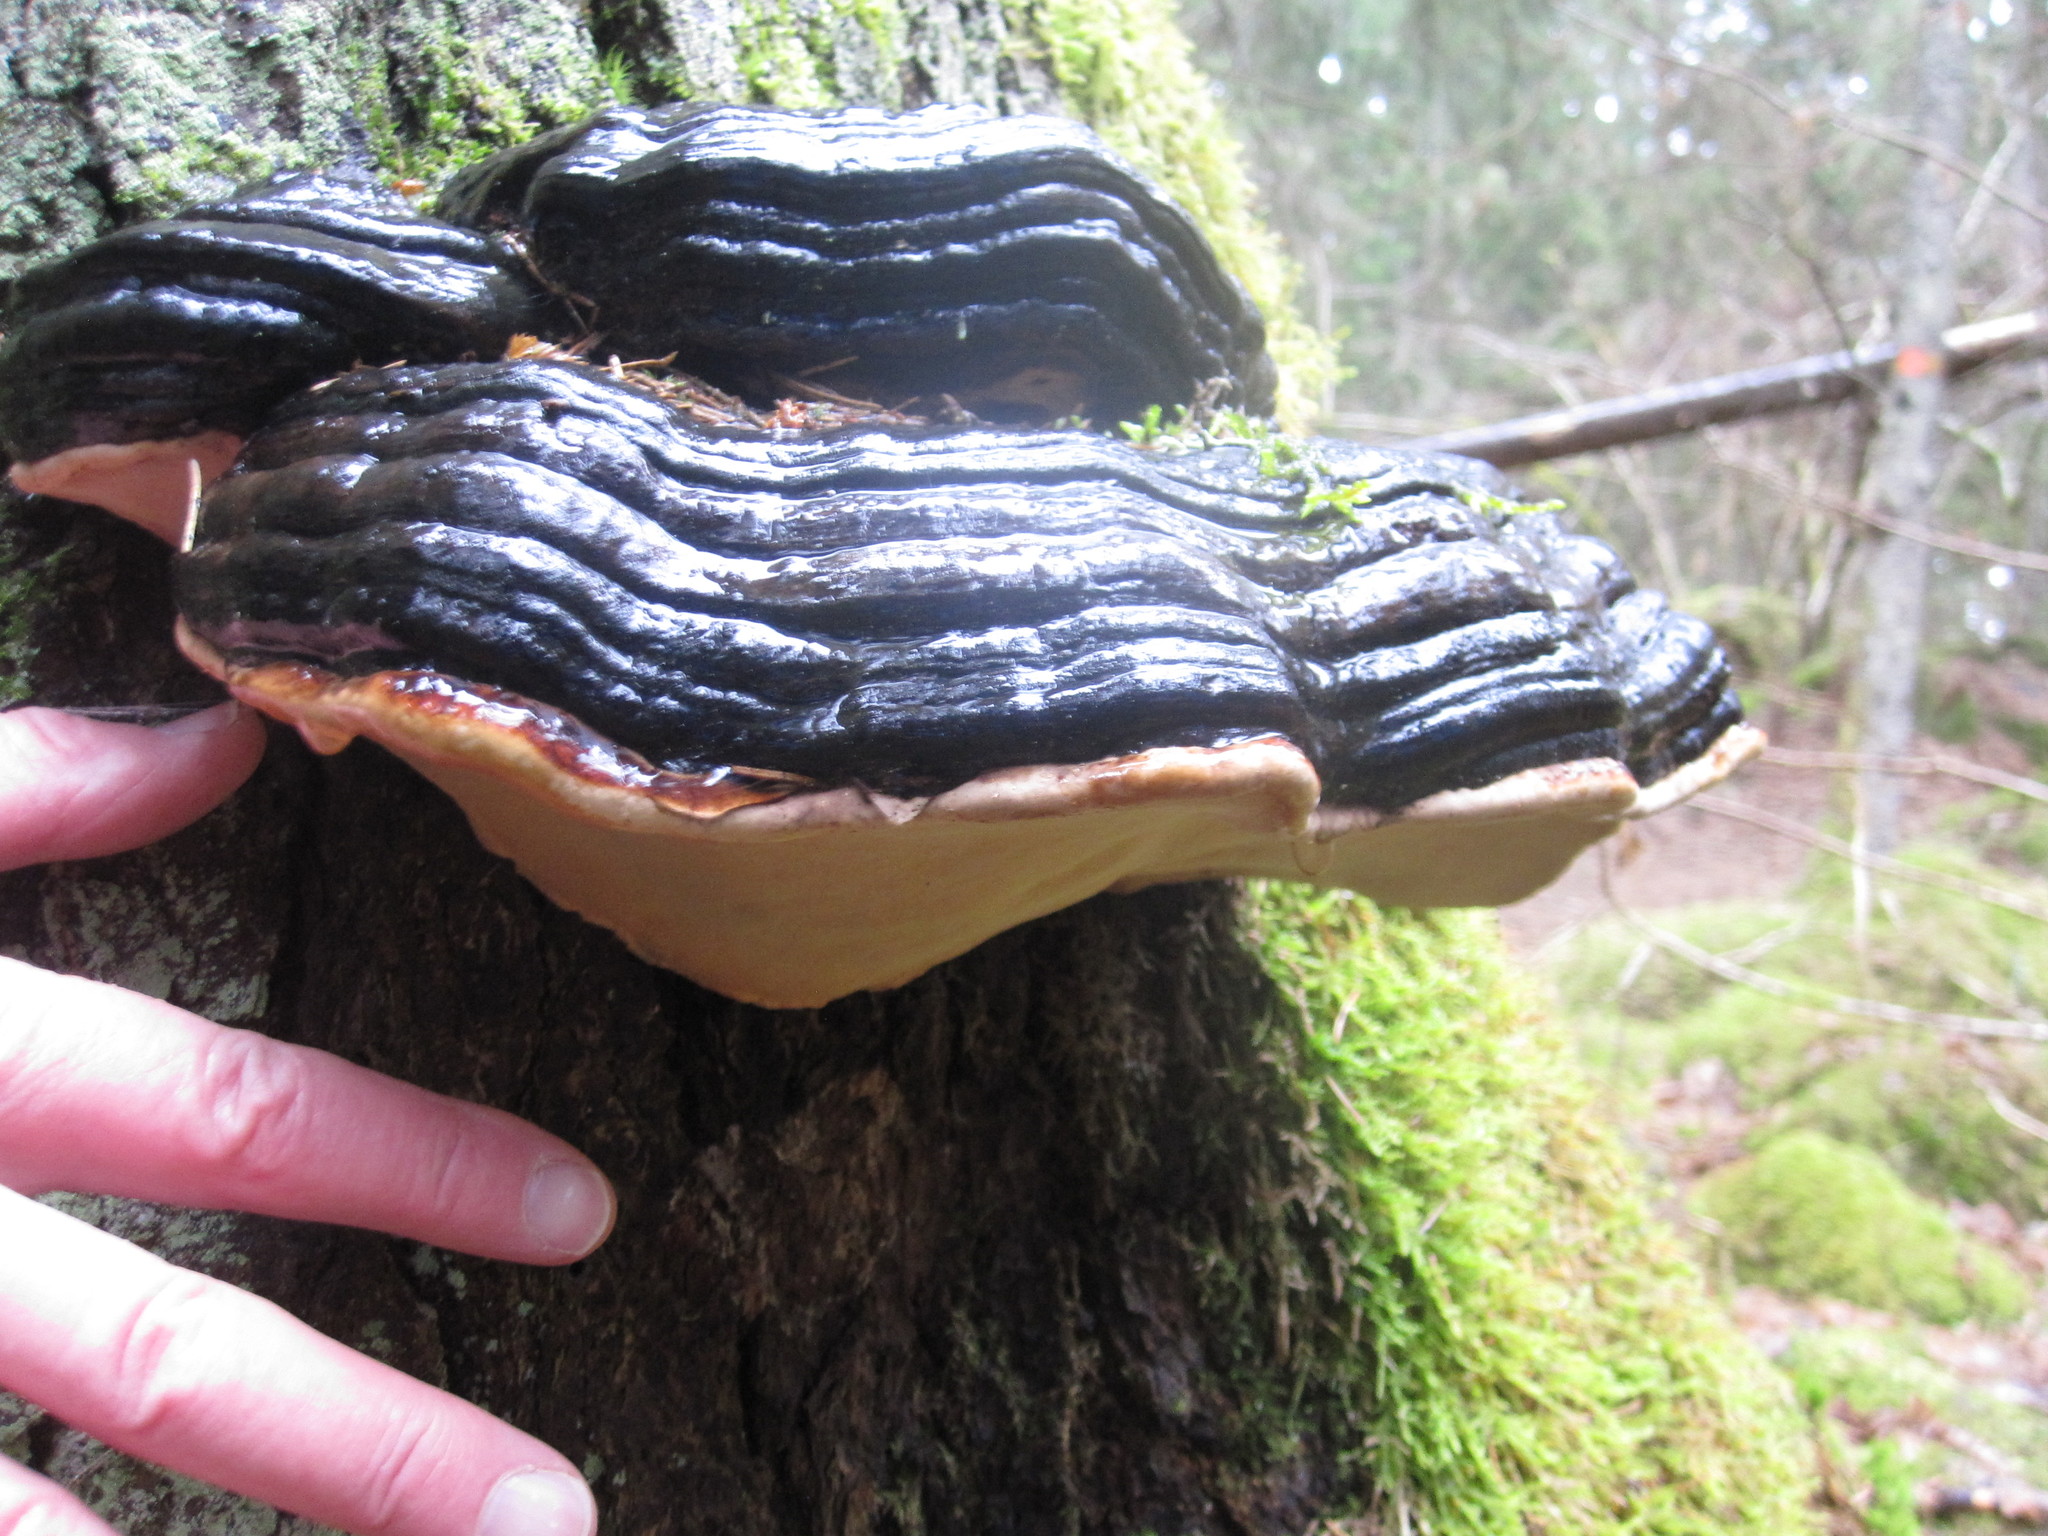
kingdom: Fungi
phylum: Basidiomycota
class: Agaricomycetes
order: Polyporales
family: Fomitopsidaceae
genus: Fomitopsis
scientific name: Fomitopsis pinicola
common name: Red-belted bracket
